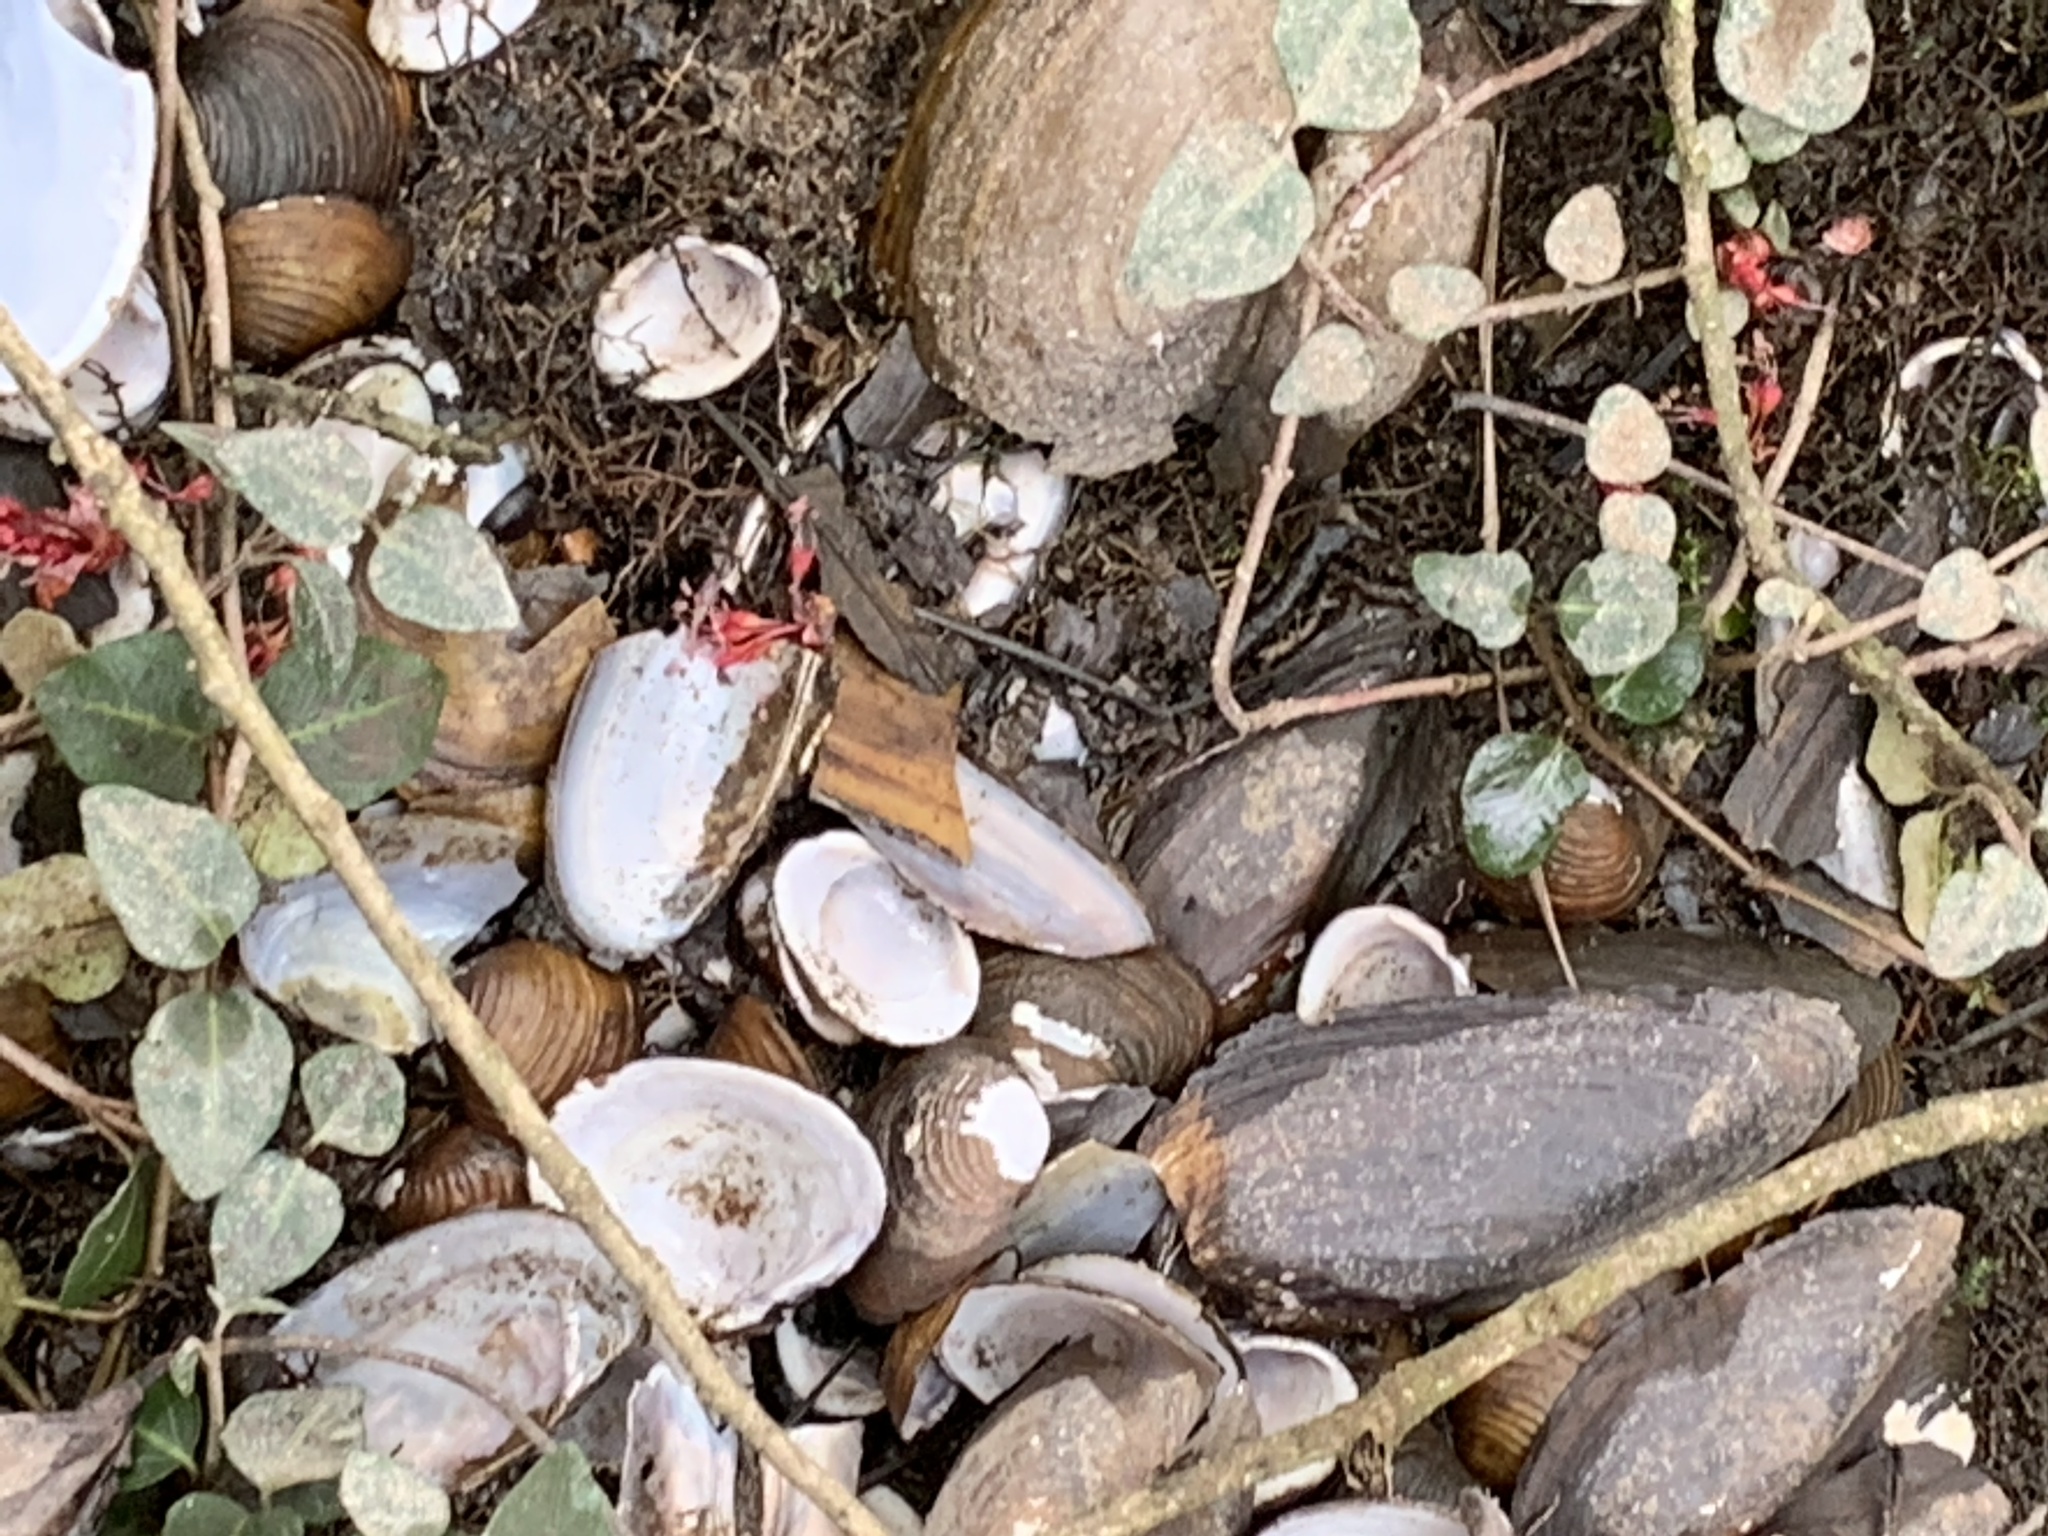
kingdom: Animalia
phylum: Mollusca
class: Bivalvia
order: Venerida
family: Cyrenidae
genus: Corbicula
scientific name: Corbicula fluminea
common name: Asian clam
